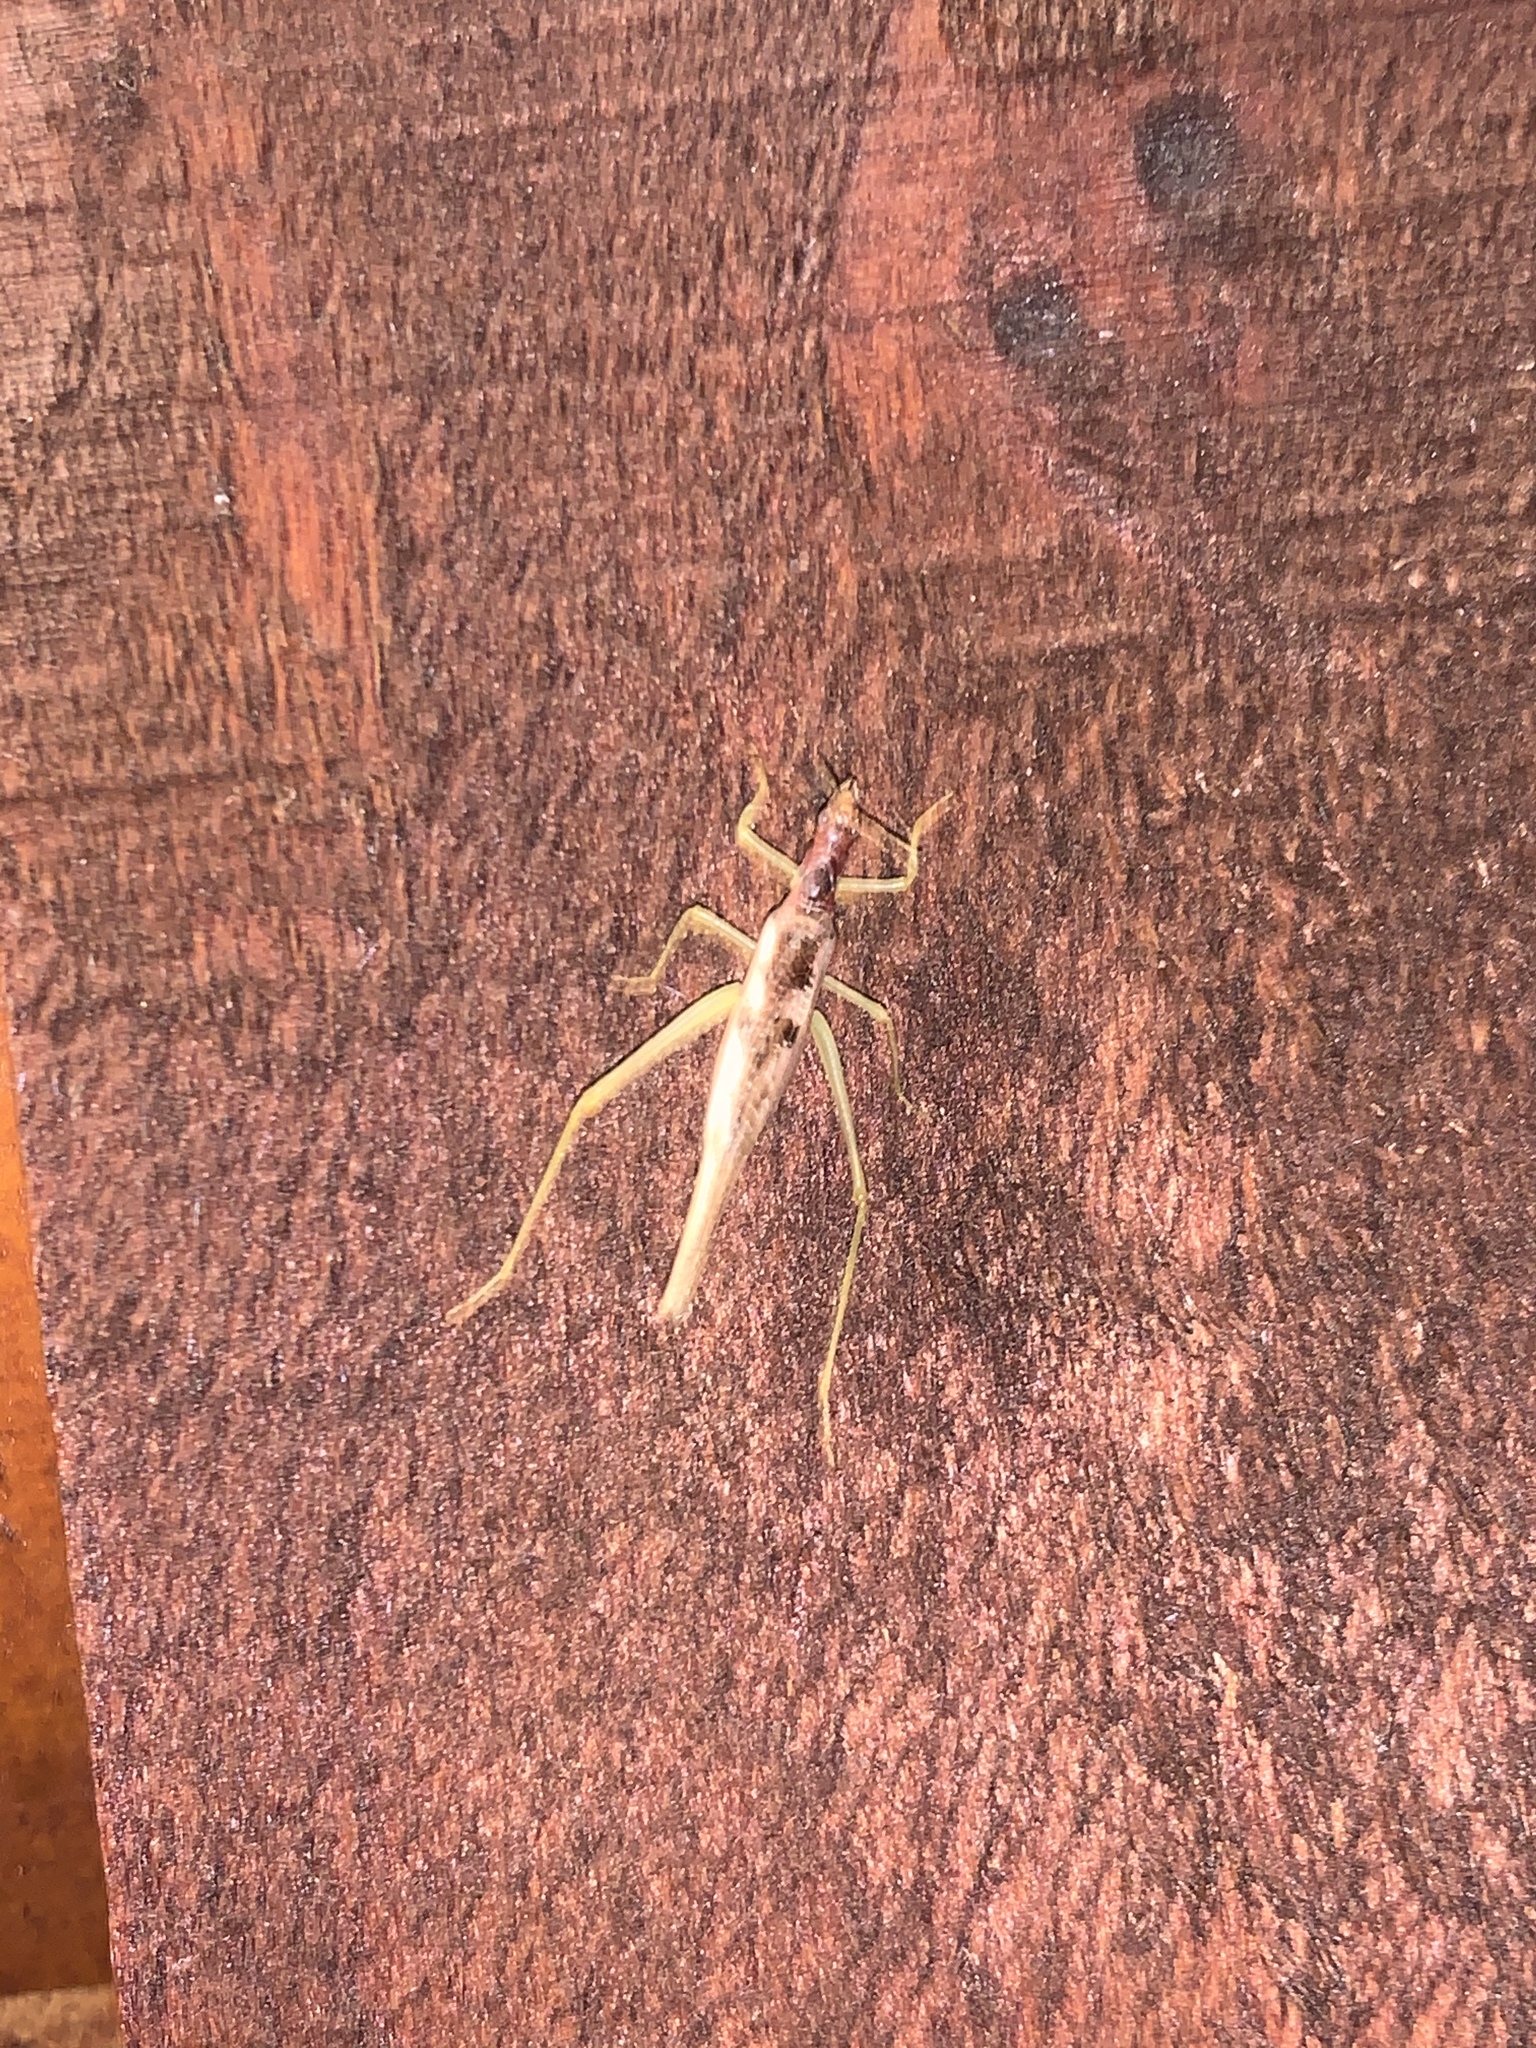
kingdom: Animalia
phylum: Arthropoda
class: Insecta
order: Orthoptera
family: Gryllidae
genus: Neoxabea
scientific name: Neoxabea bipunctata
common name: Two-spotted tree cricket
